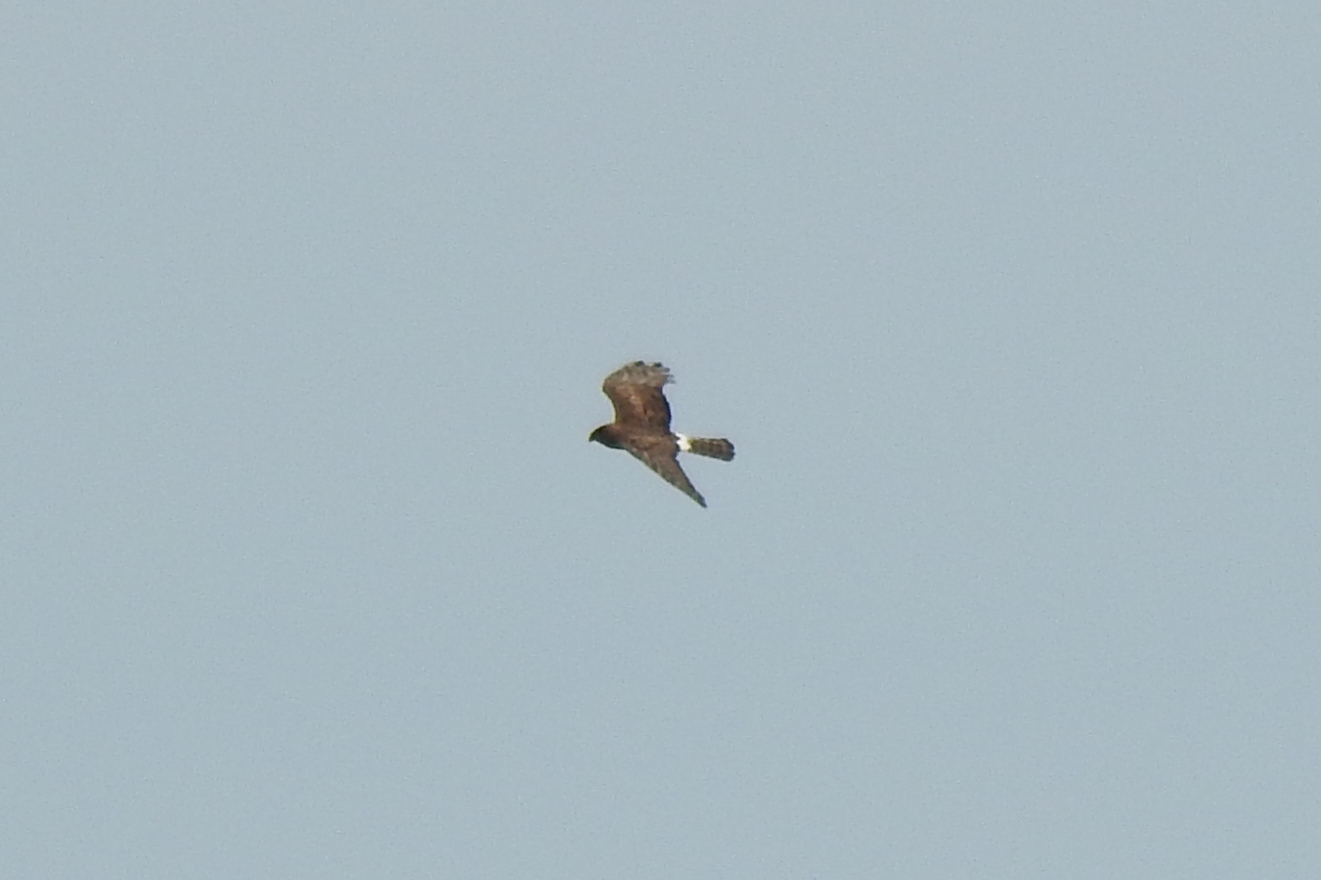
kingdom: Animalia
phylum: Chordata
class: Aves
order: Accipitriformes
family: Accipitridae
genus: Circus
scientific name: Circus cyaneus
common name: Hen harrier
